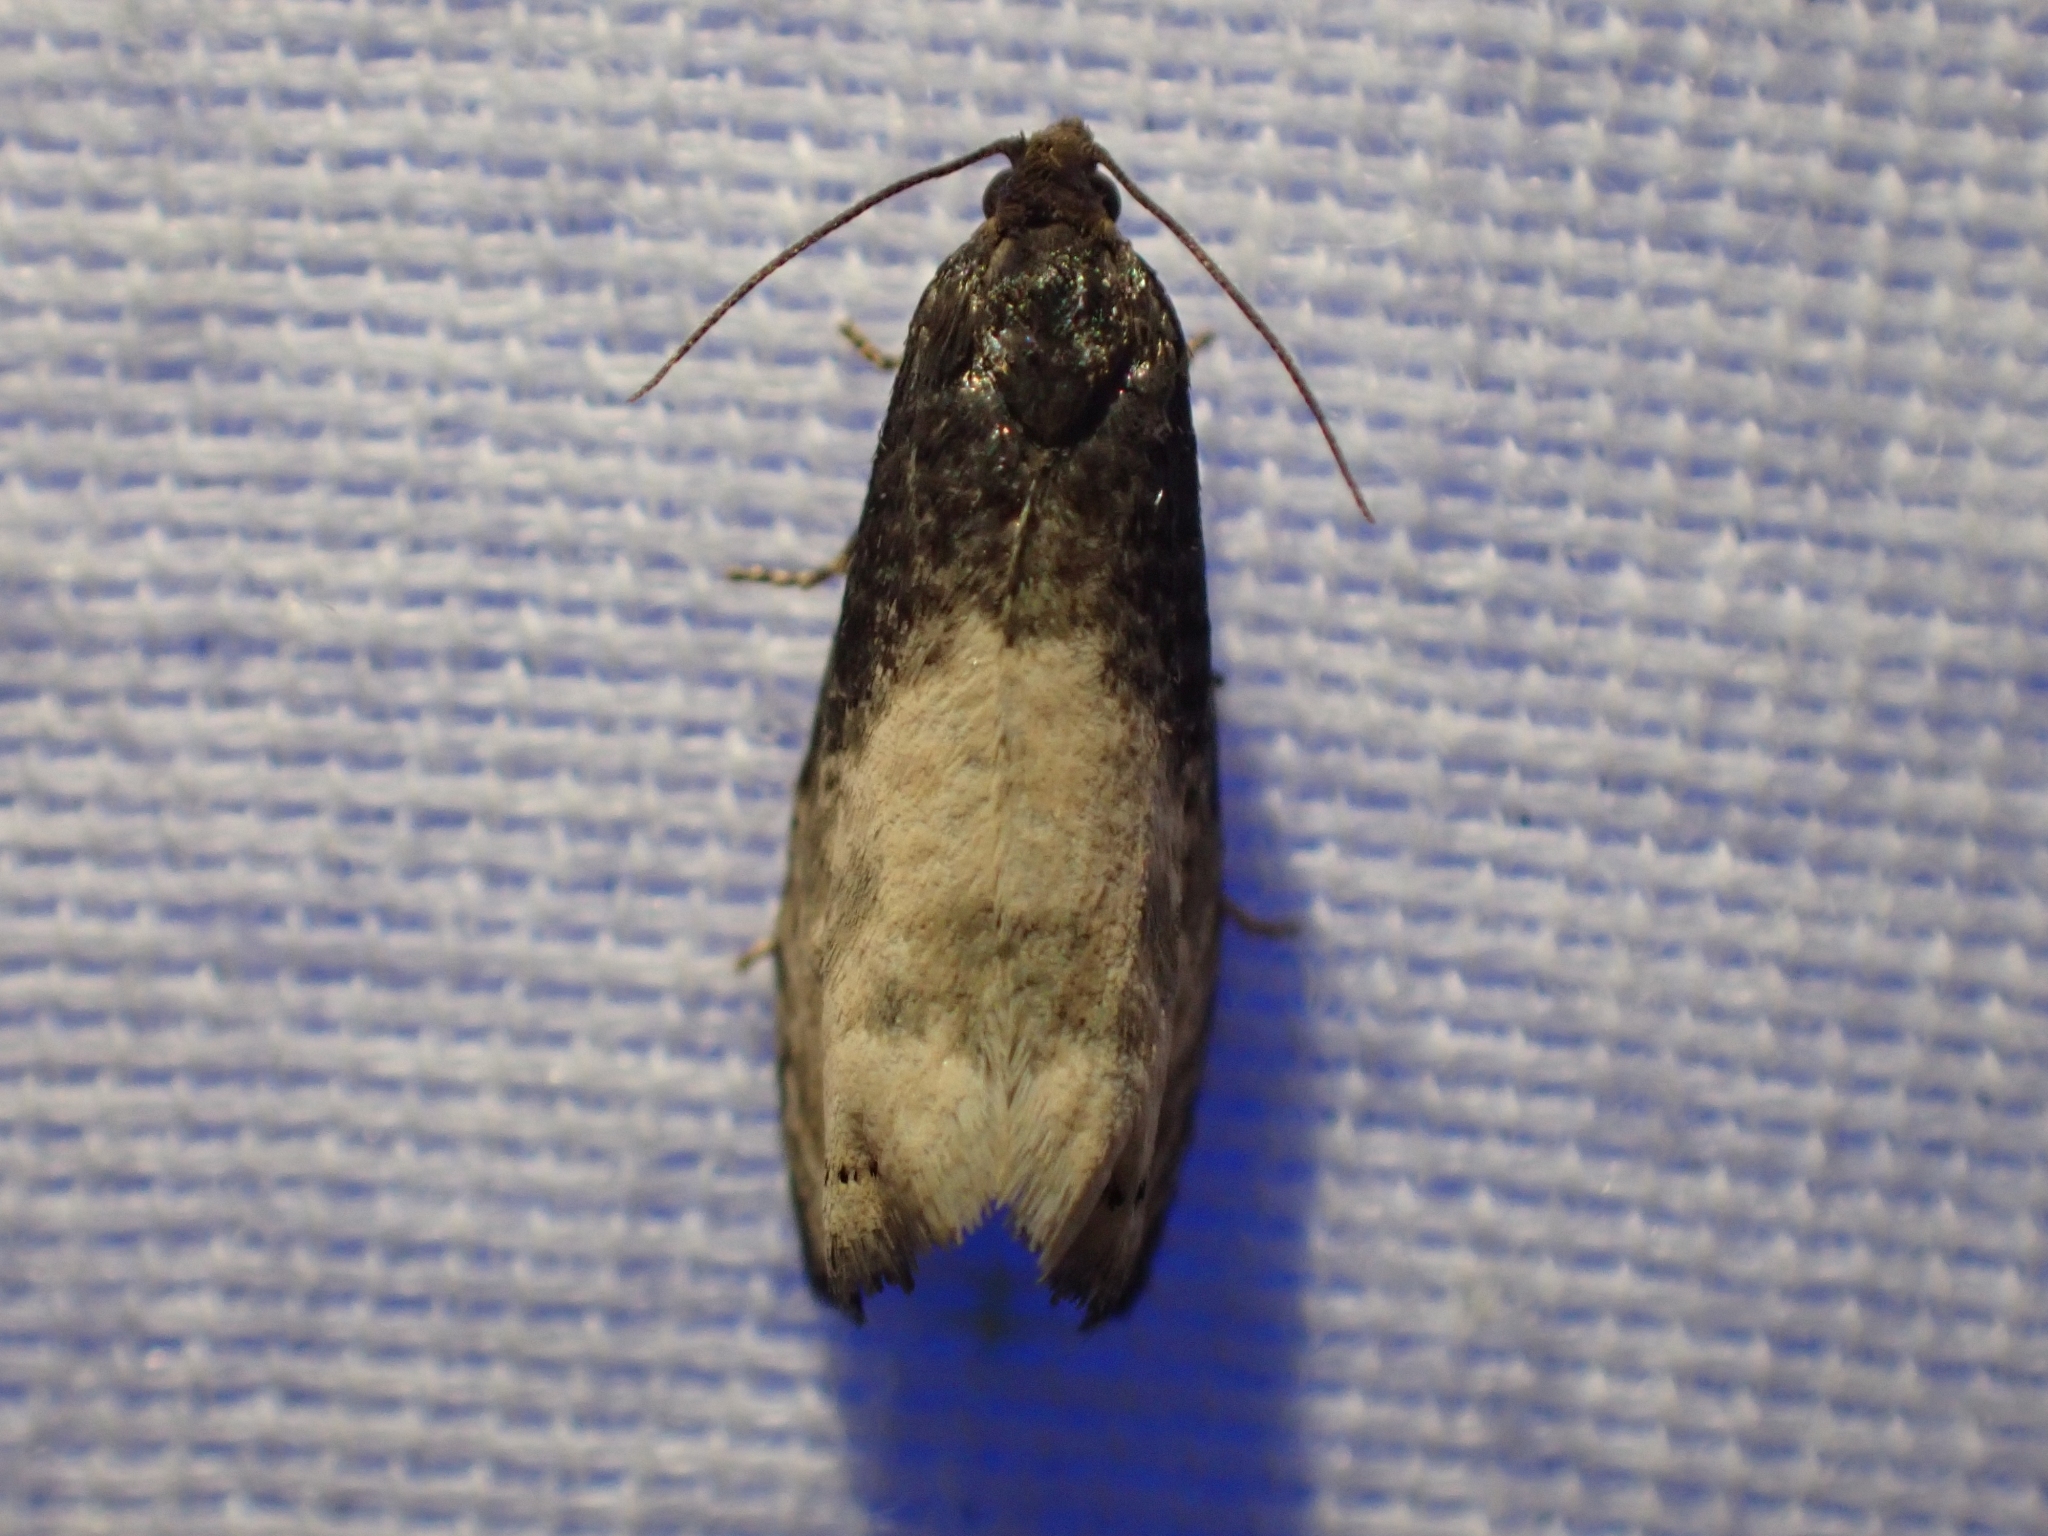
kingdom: Animalia
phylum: Arthropoda
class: Insecta
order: Lepidoptera
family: Tortricidae
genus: Notocelia
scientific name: Notocelia illotana
